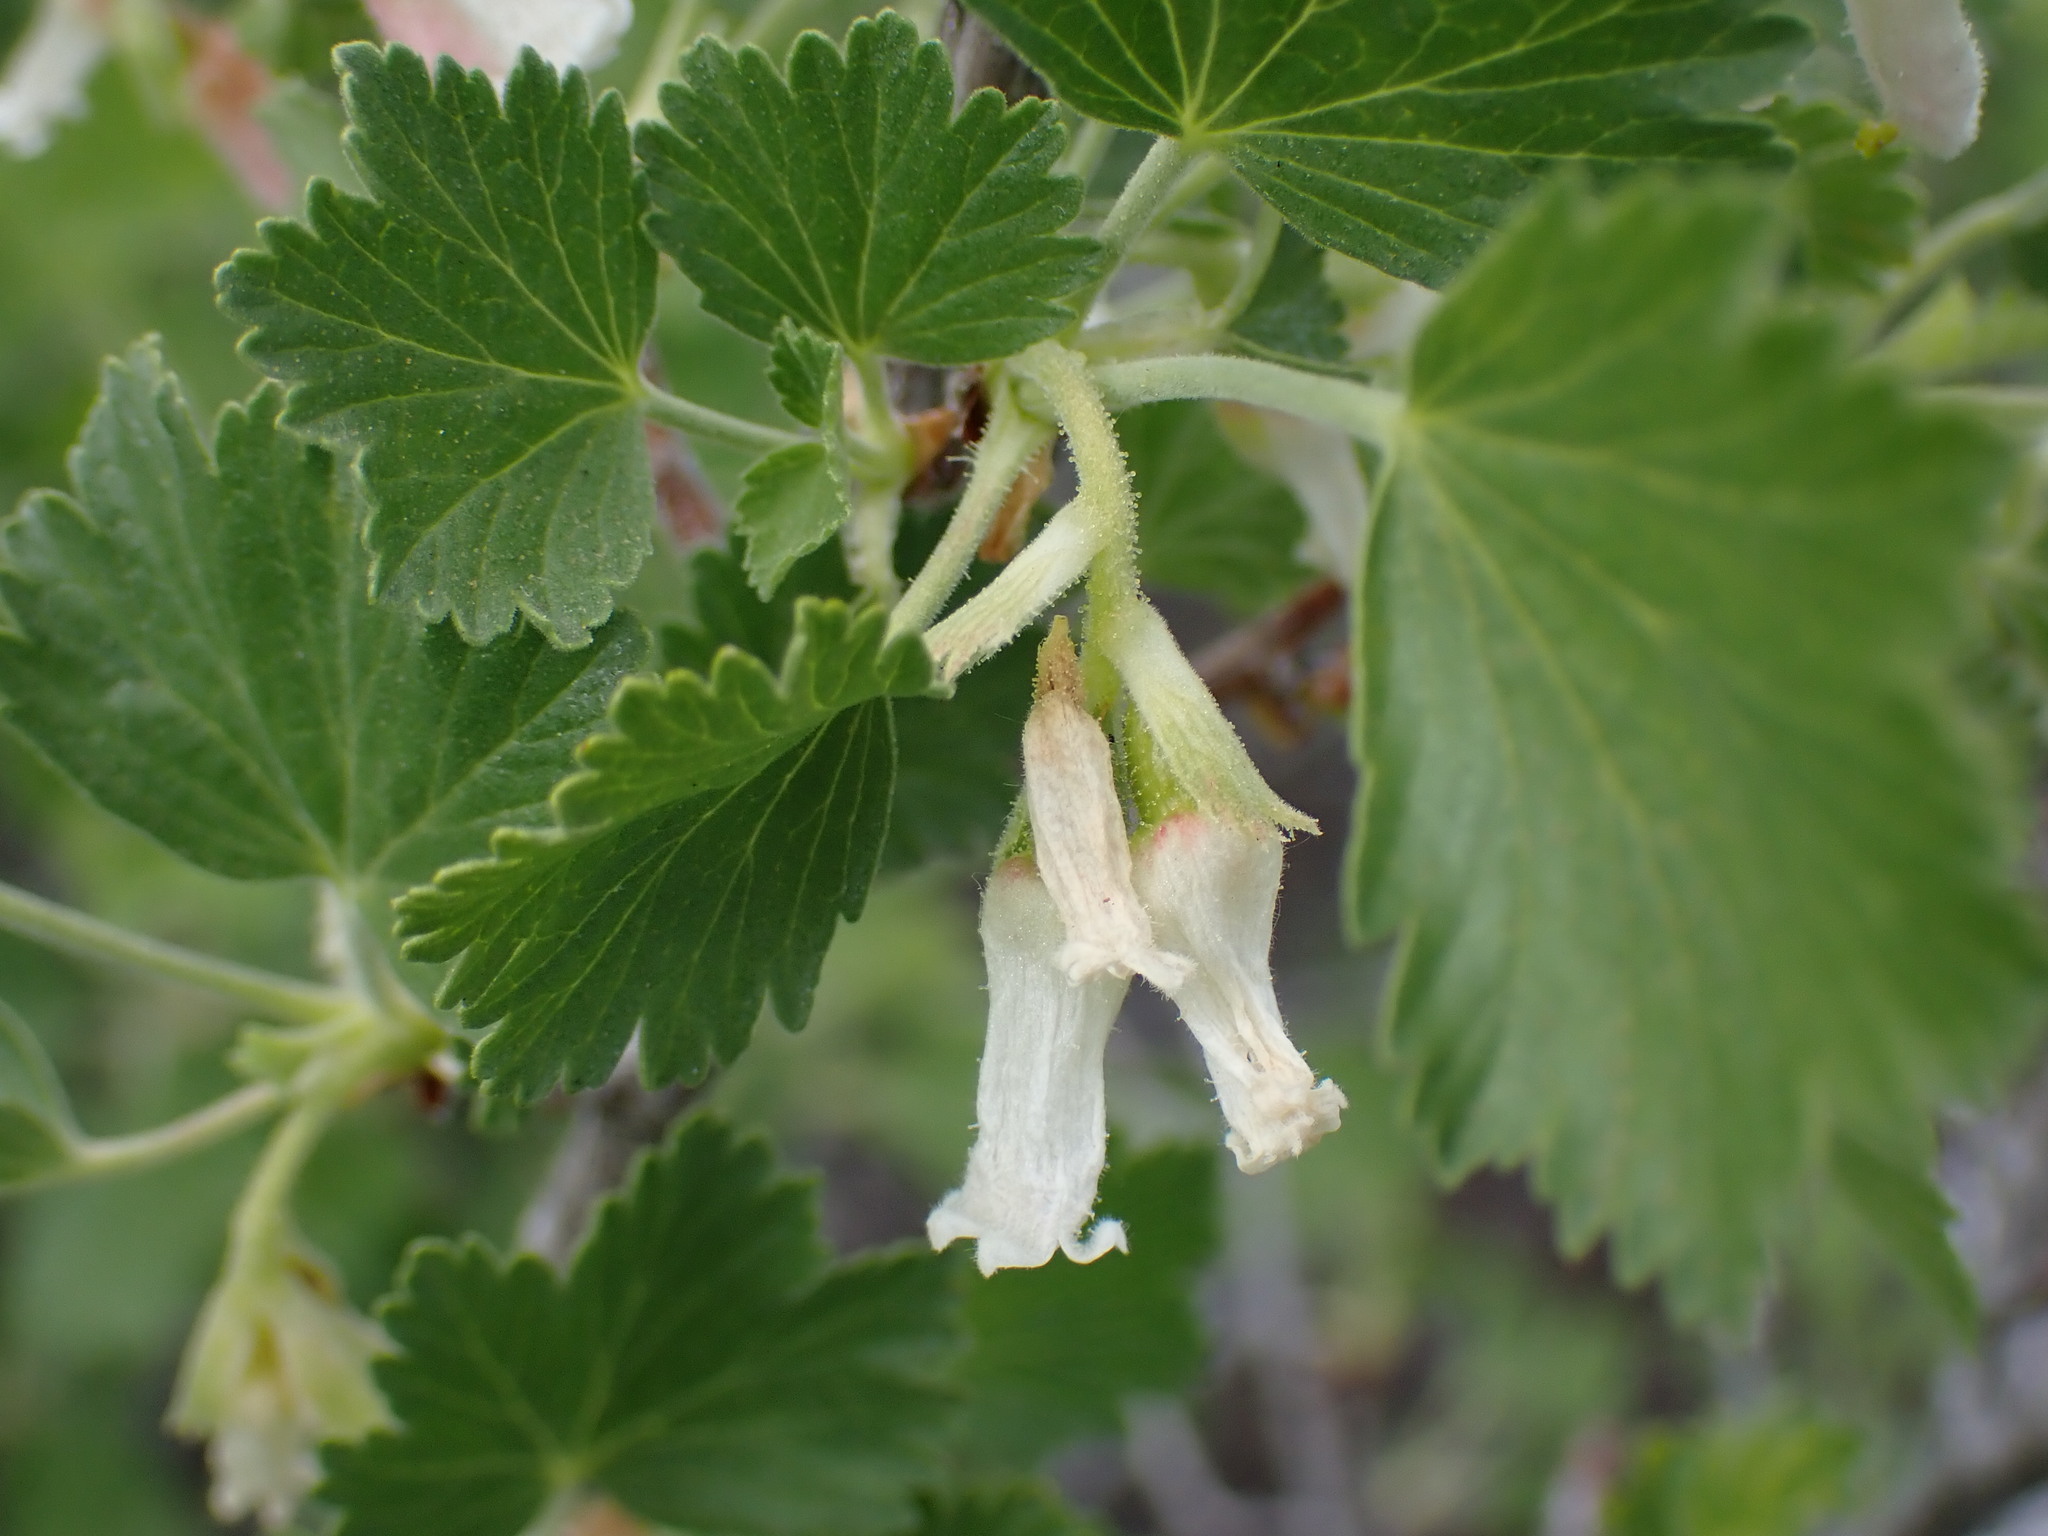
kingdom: Plantae
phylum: Tracheophyta
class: Magnoliopsida
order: Saxifragales
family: Grossulariaceae
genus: Ribes
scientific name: Ribes cereum
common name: Wax currant
